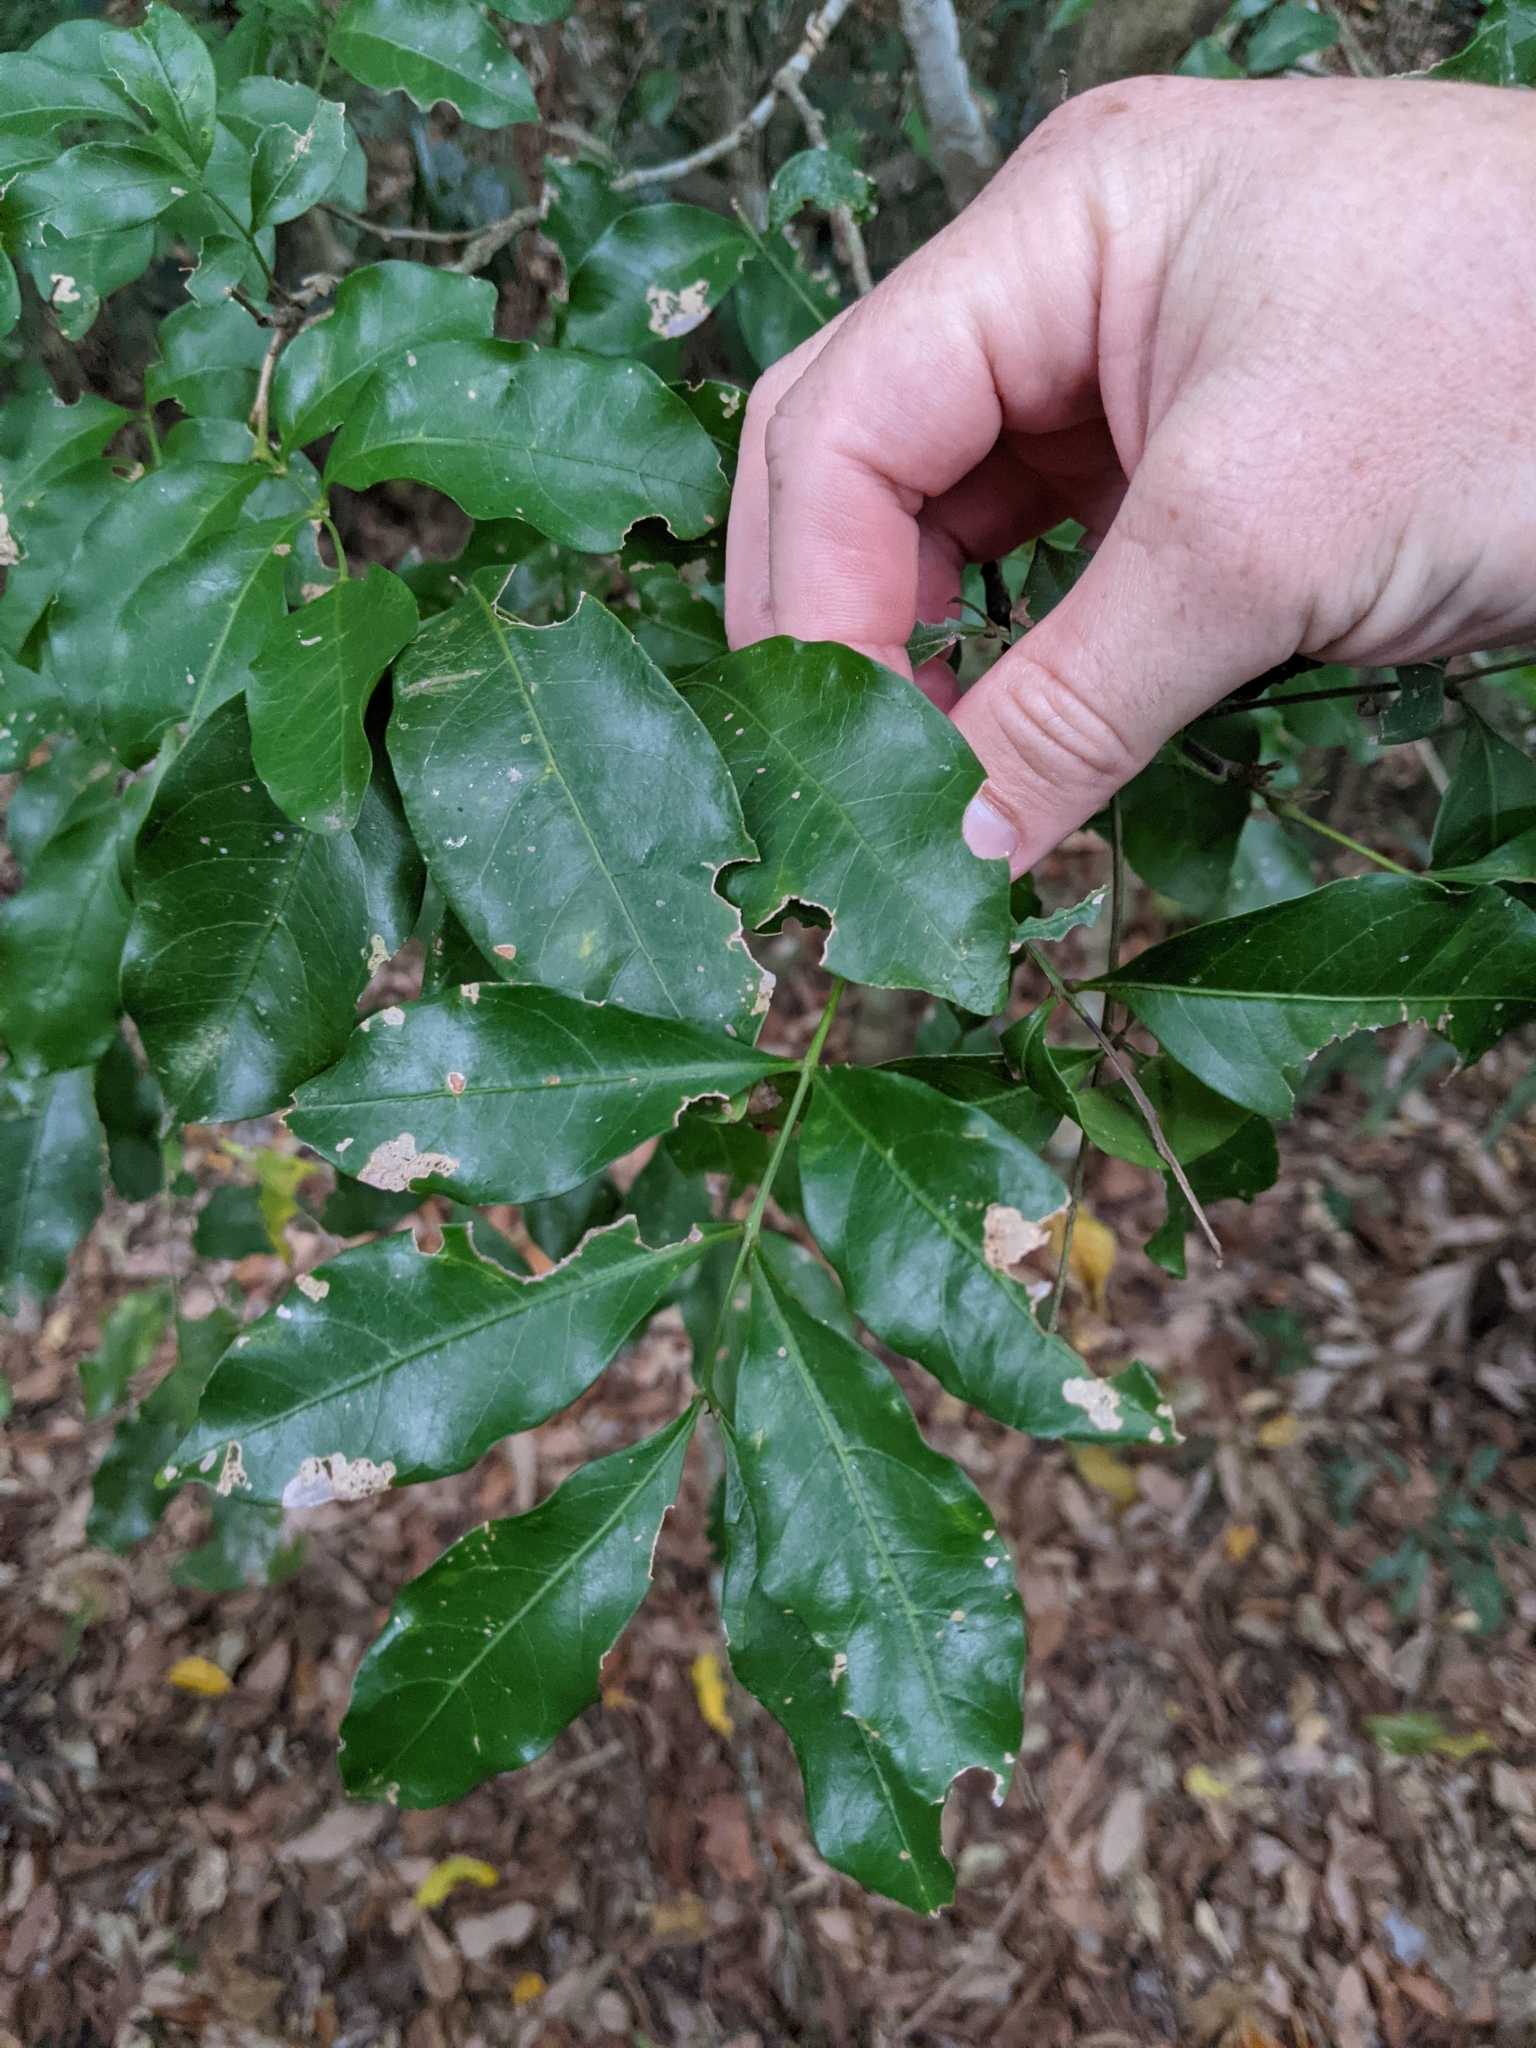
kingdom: Plantae
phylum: Tracheophyta
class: Magnoliopsida
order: Sapindales
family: Sapindaceae
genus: Toechima
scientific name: Toechima tenax
